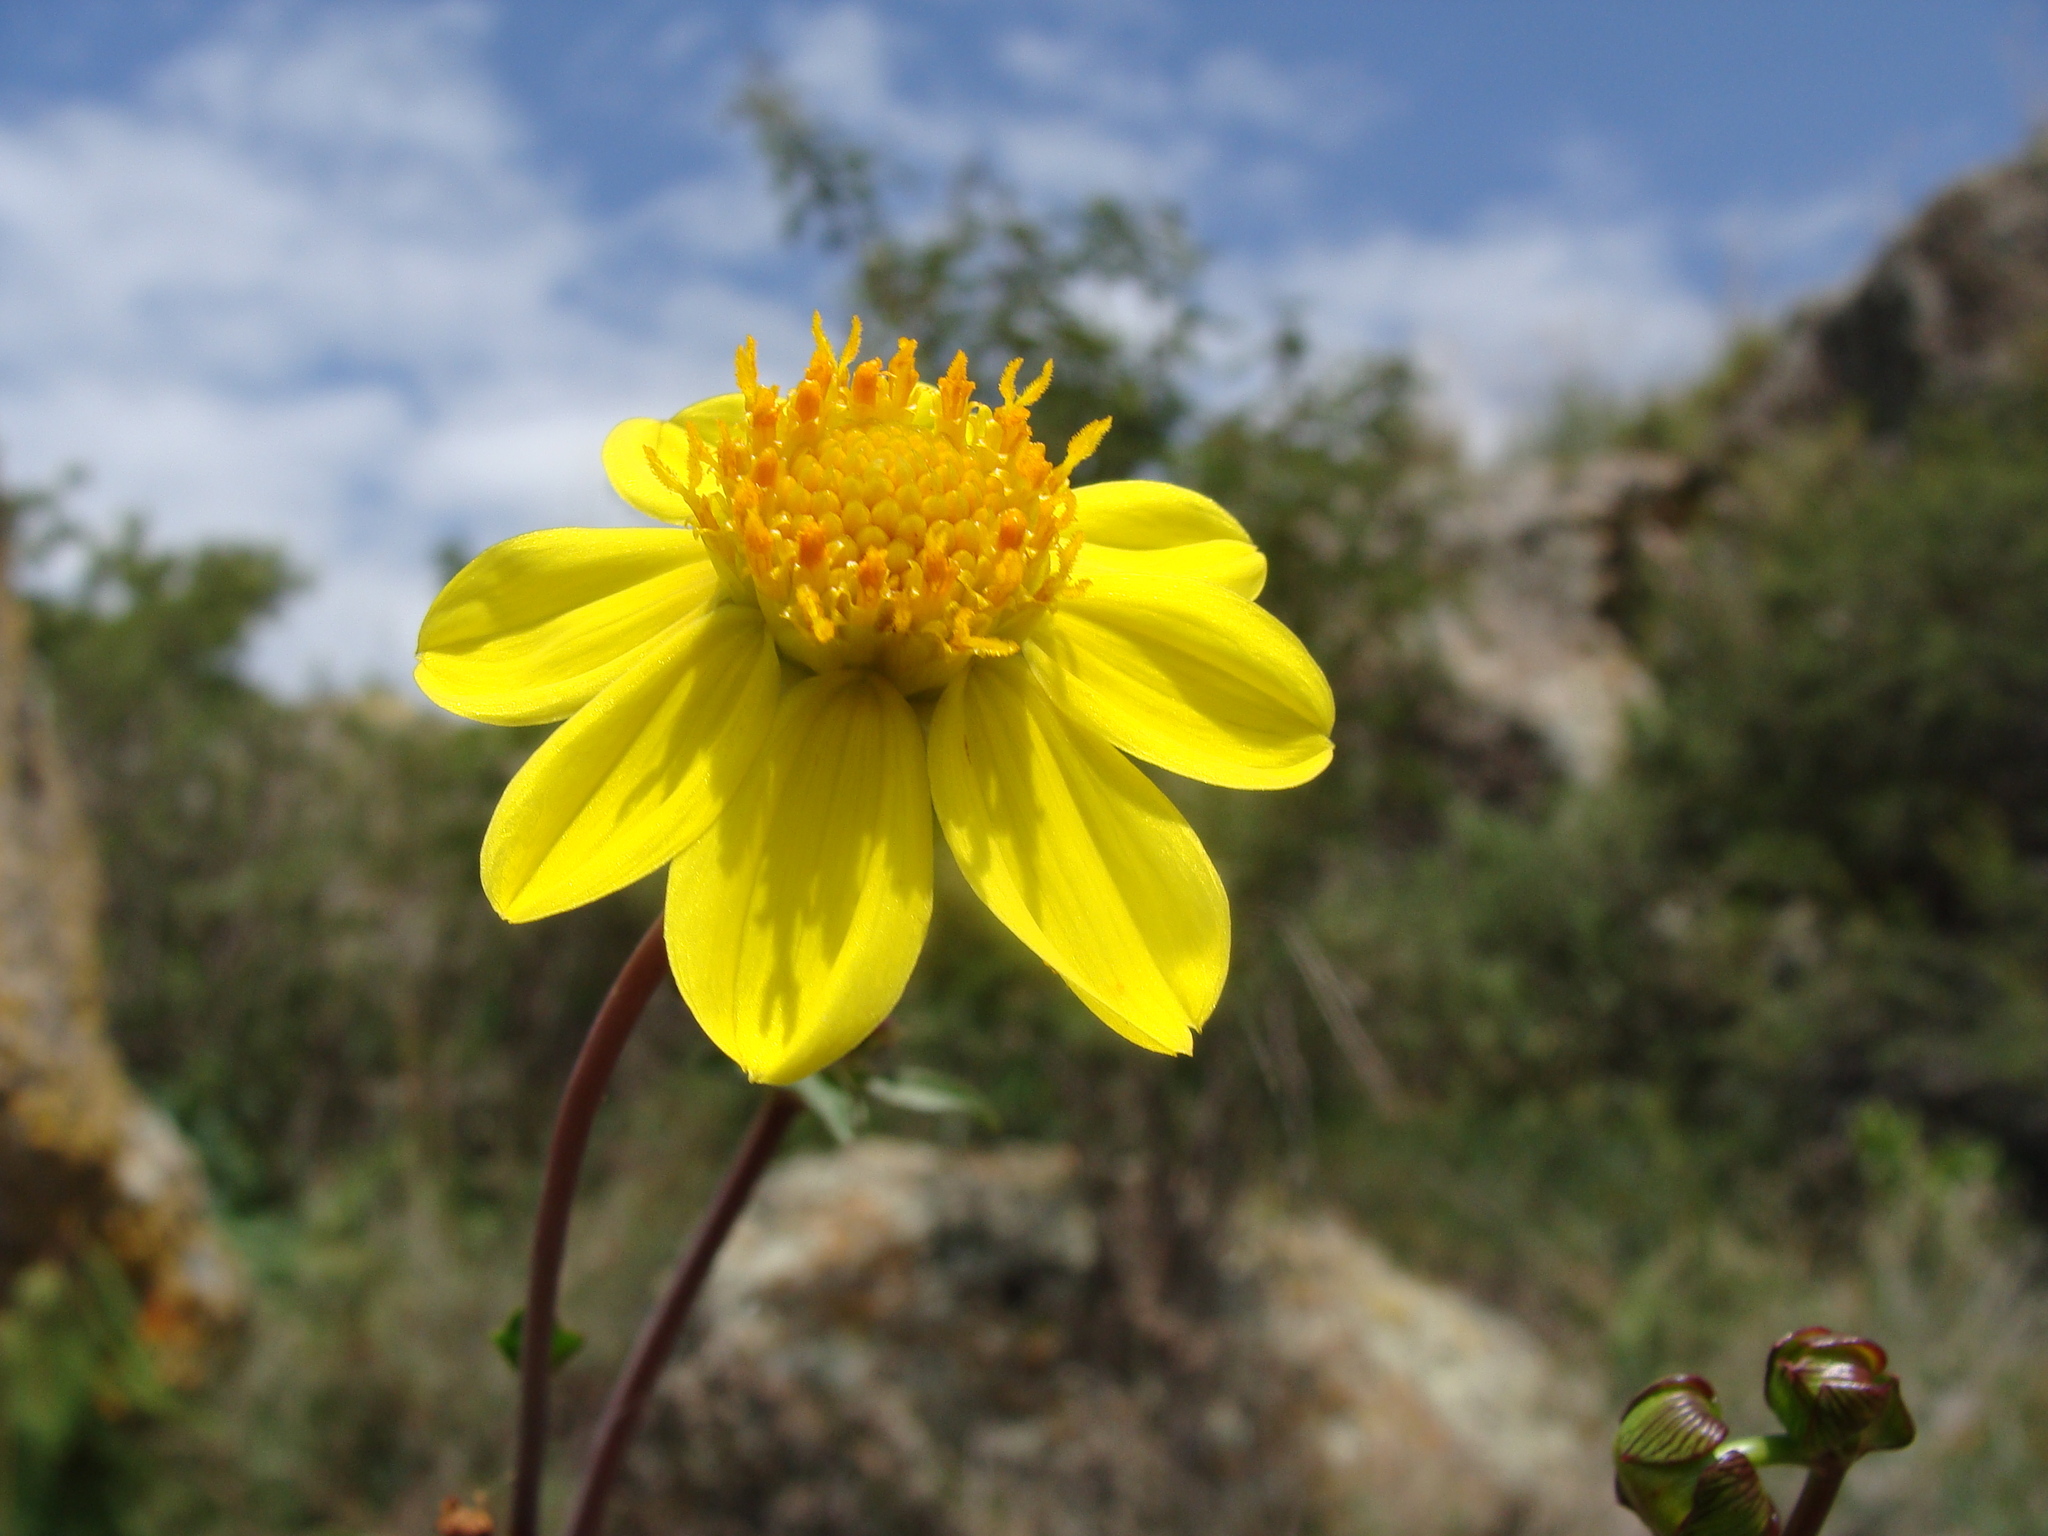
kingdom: Plantae
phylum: Tracheophyta
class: Magnoliopsida
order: Asterales
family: Asteraceae
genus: Dahlia
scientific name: Dahlia coccinea
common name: Red dahlia
